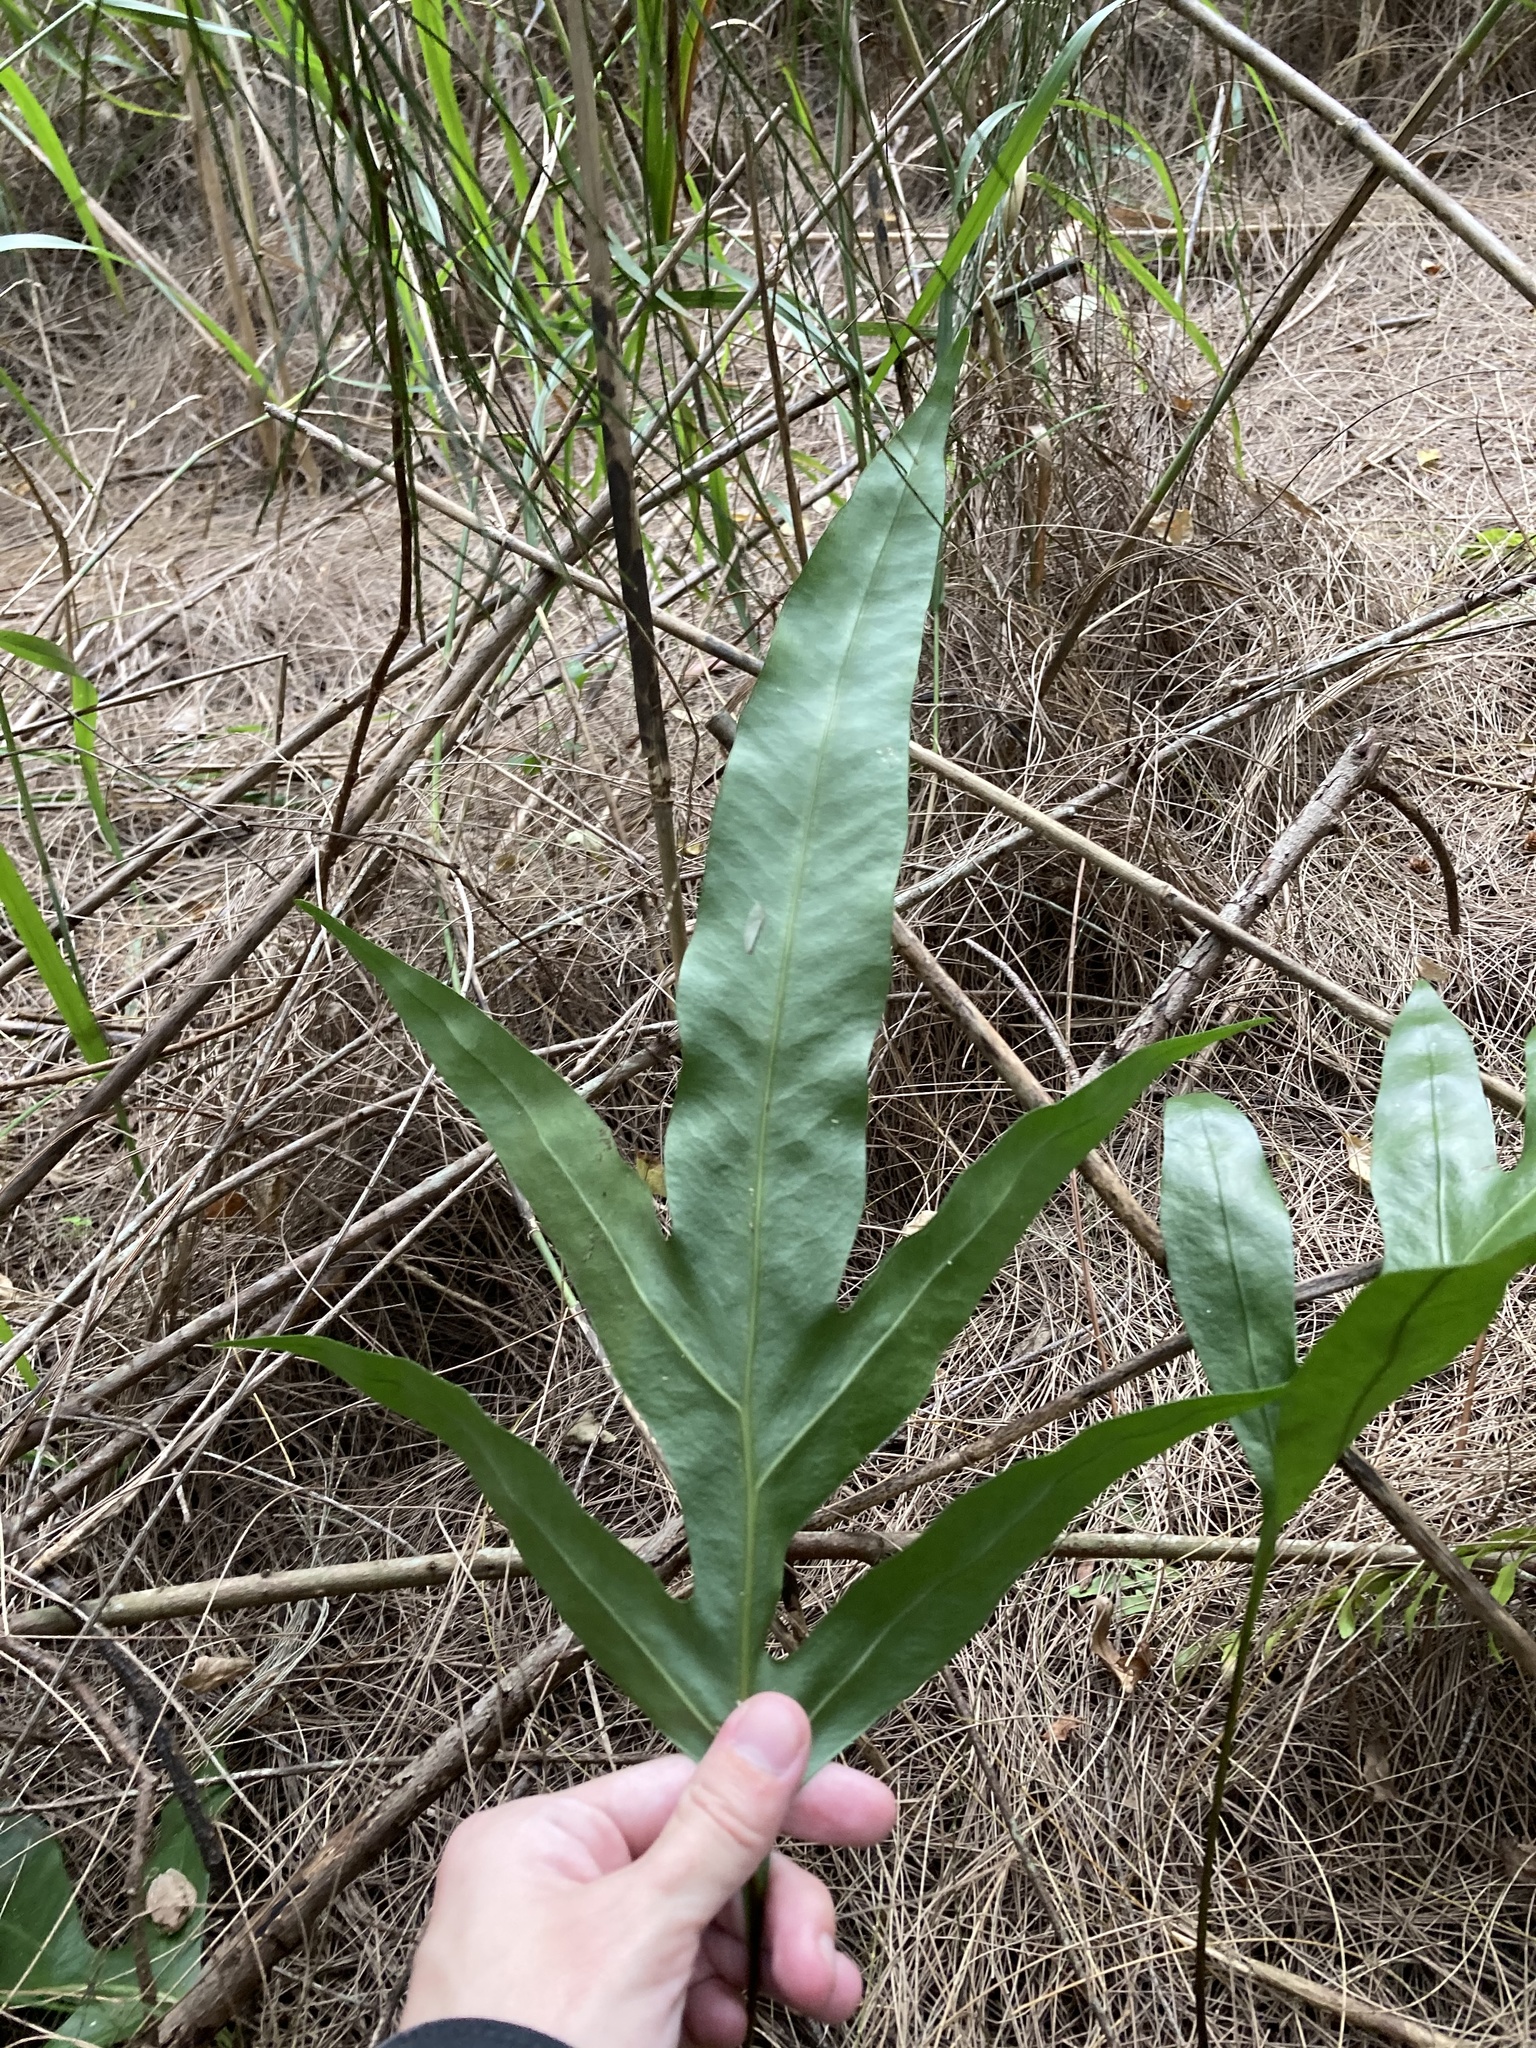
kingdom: Plantae
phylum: Tracheophyta
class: Polypodiopsida
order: Polypodiales
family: Polypodiaceae
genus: Phlebodium
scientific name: Phlebodium aureum
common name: Gold-foot fern
